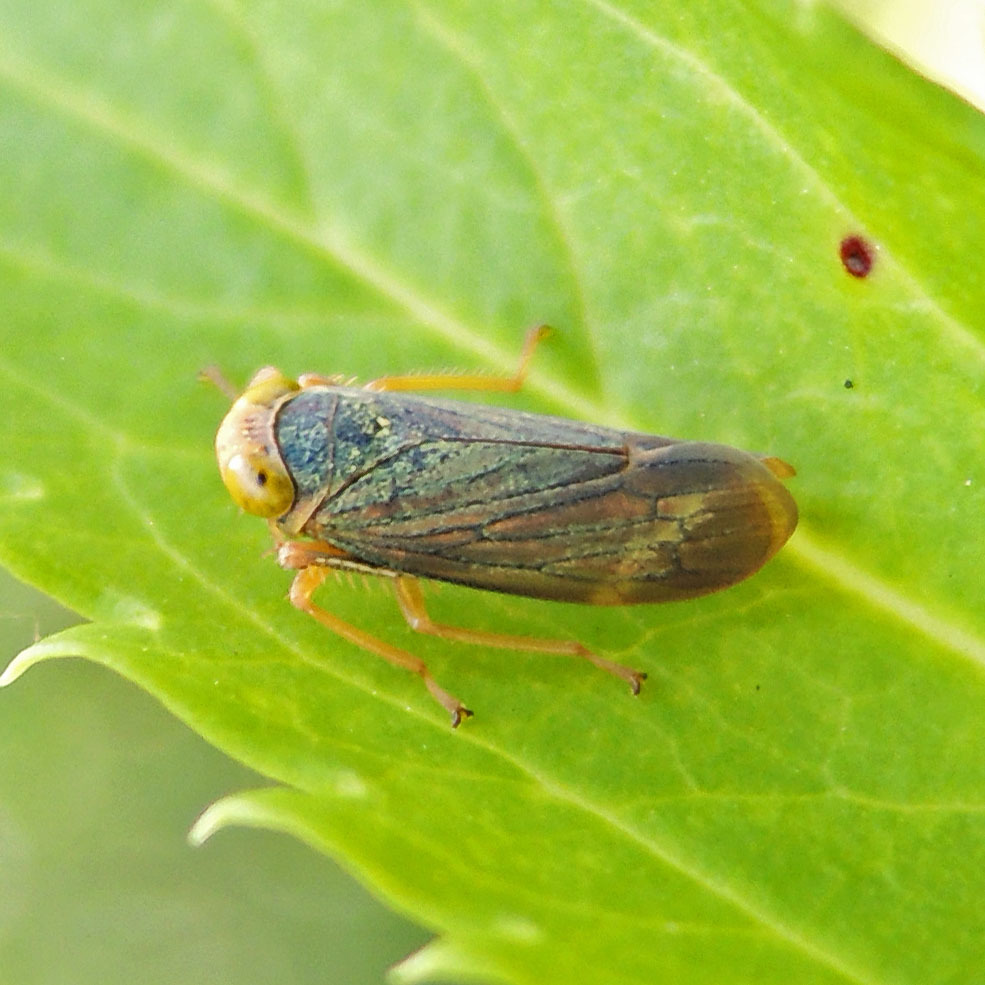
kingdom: Animalia
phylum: Arthropoda
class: Insecta
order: Hemiptera
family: Cicadellidae
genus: Jikradia
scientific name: Jikradia olitoria
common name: Coppery leafhopper
